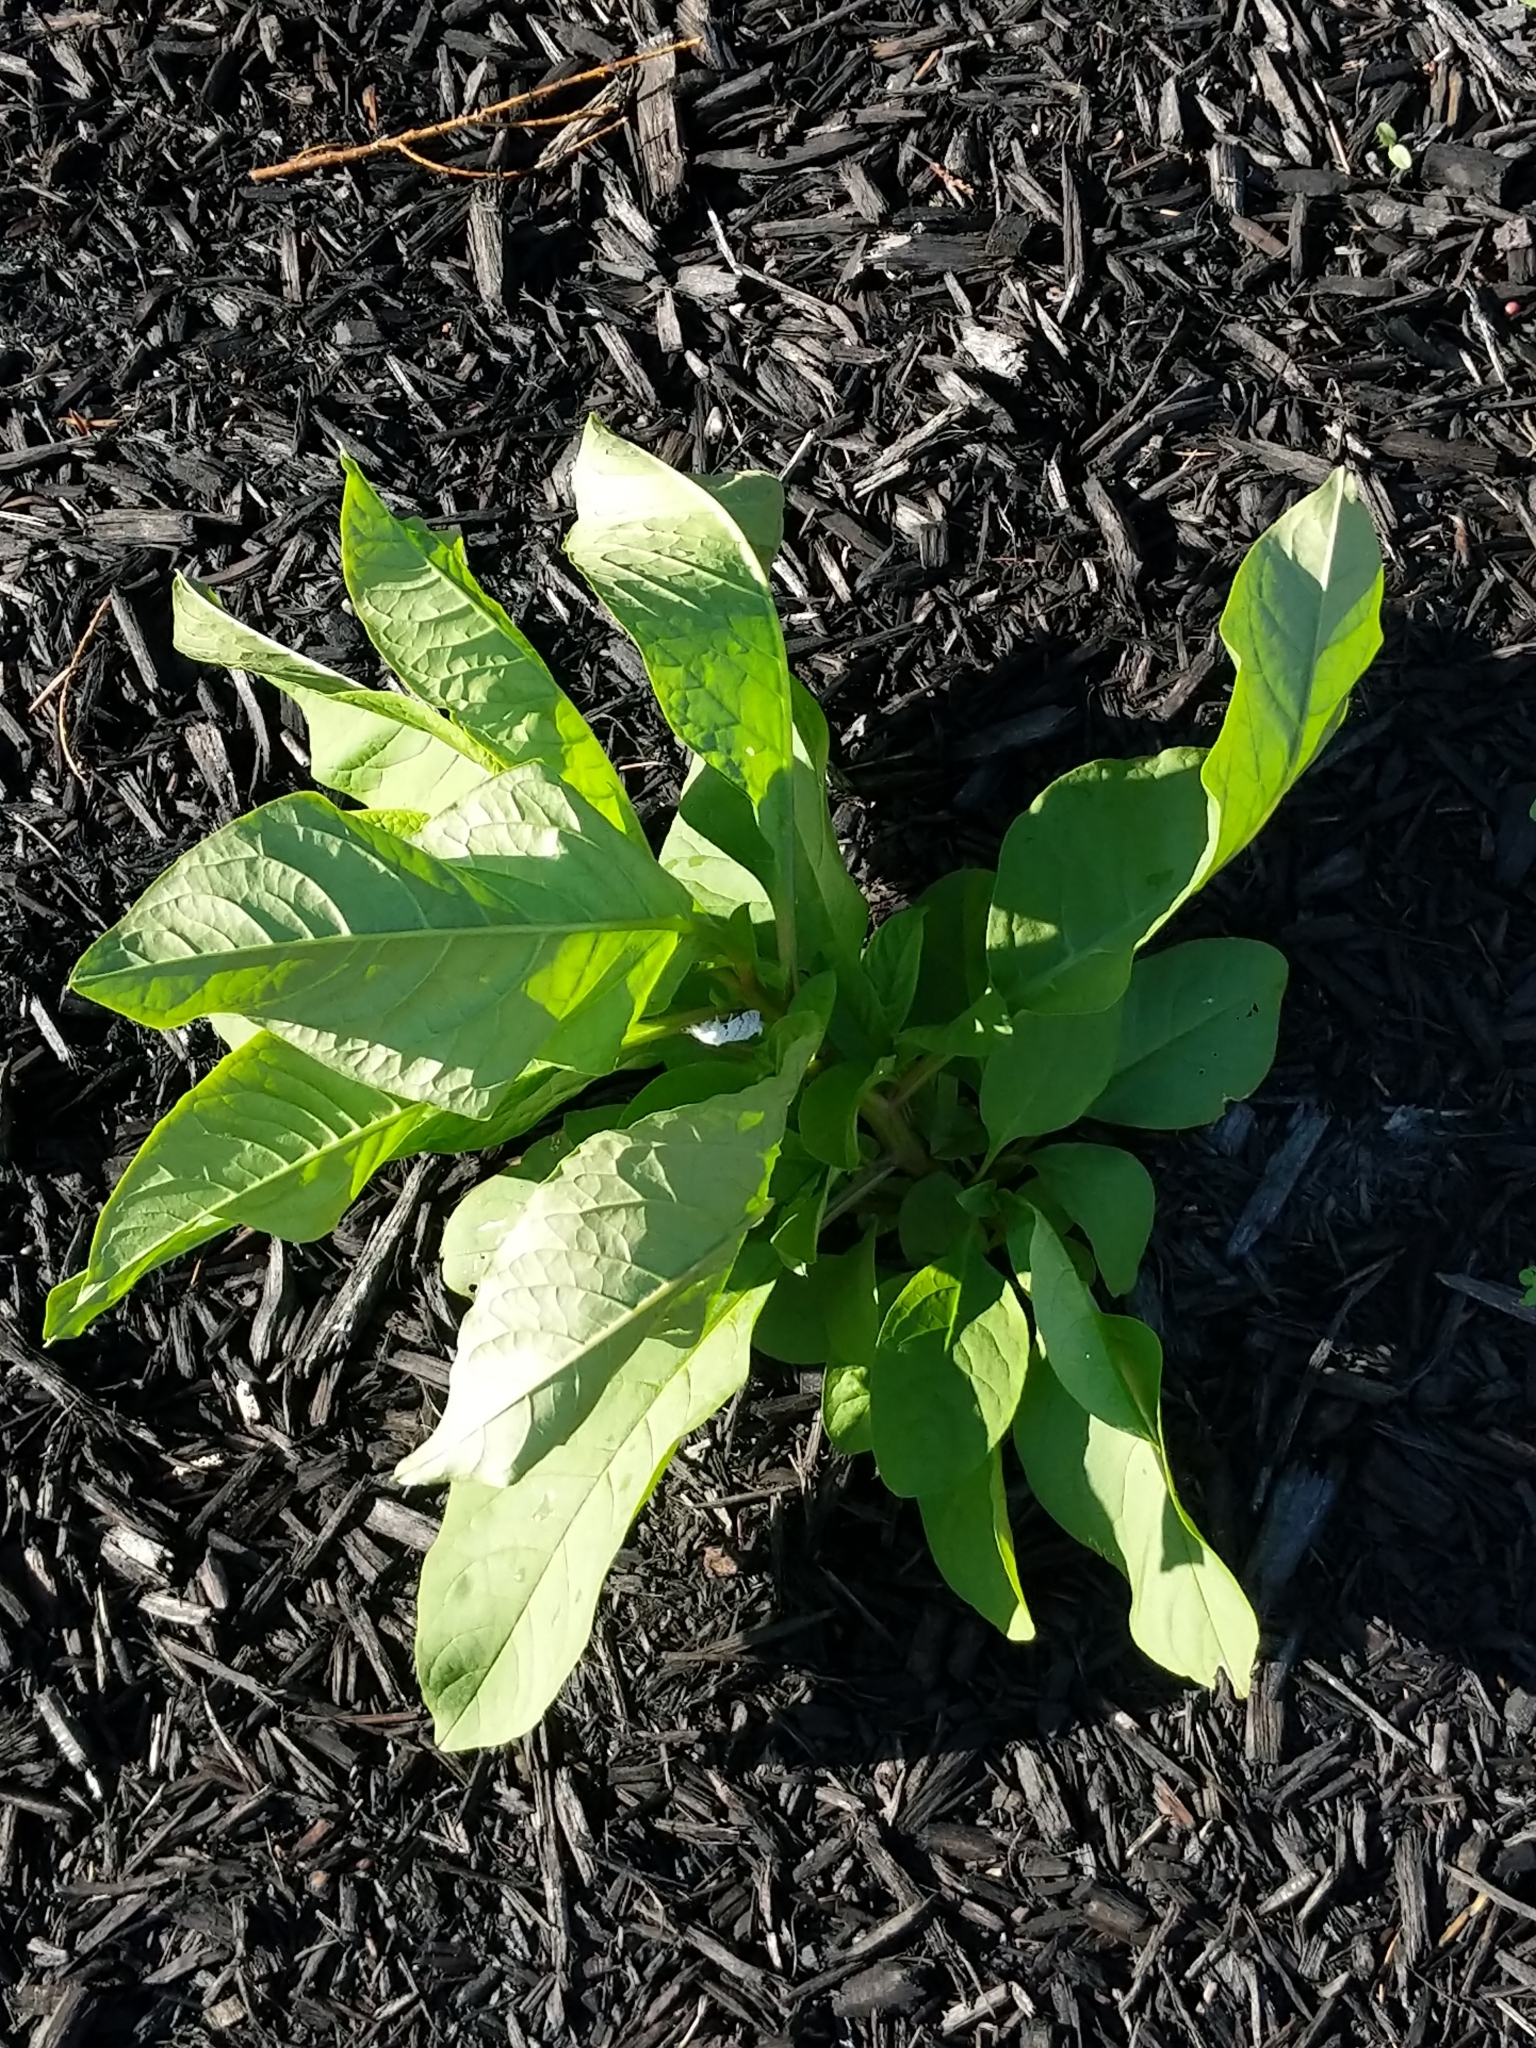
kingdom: Plantae
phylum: Tracheophyta
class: Magnoliopsida
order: Caryophyllales
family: Phytolaccaceae
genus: Phytolacca
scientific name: Phytolacca americana
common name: American pokeweed
